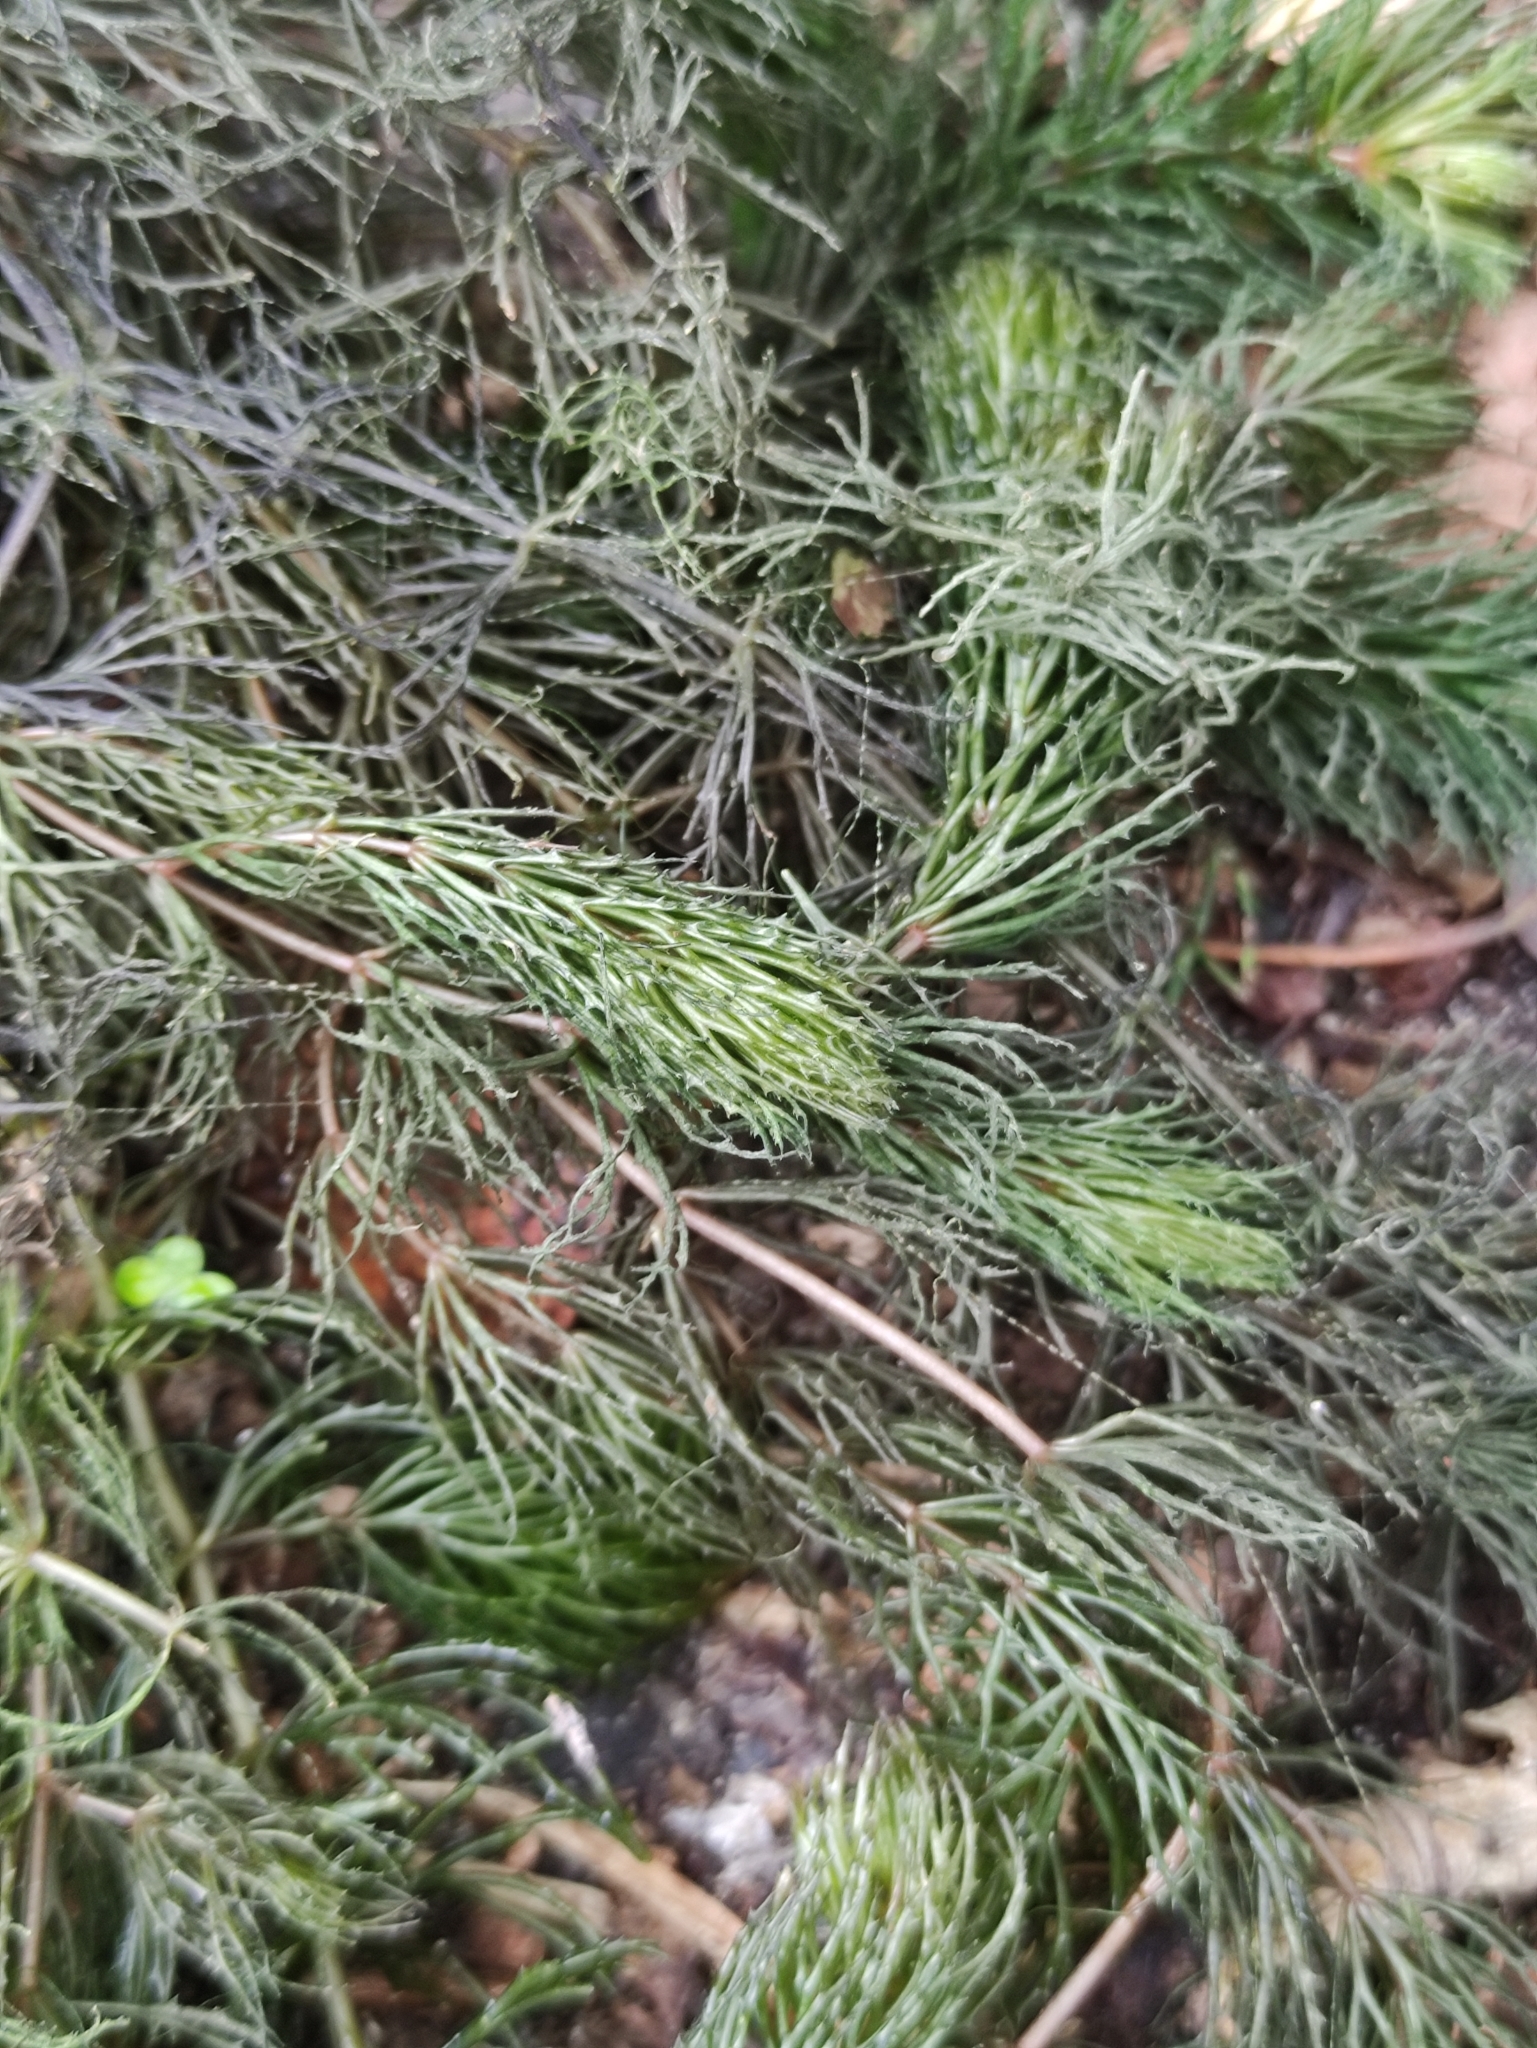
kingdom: Plantae
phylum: Tracheophyta
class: Magnoliopsida
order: Ceratophyllales
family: Ceratophyllaceae
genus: Ceratophyllum
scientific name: Ceratophyllum demersum
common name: Rigid hornwort
